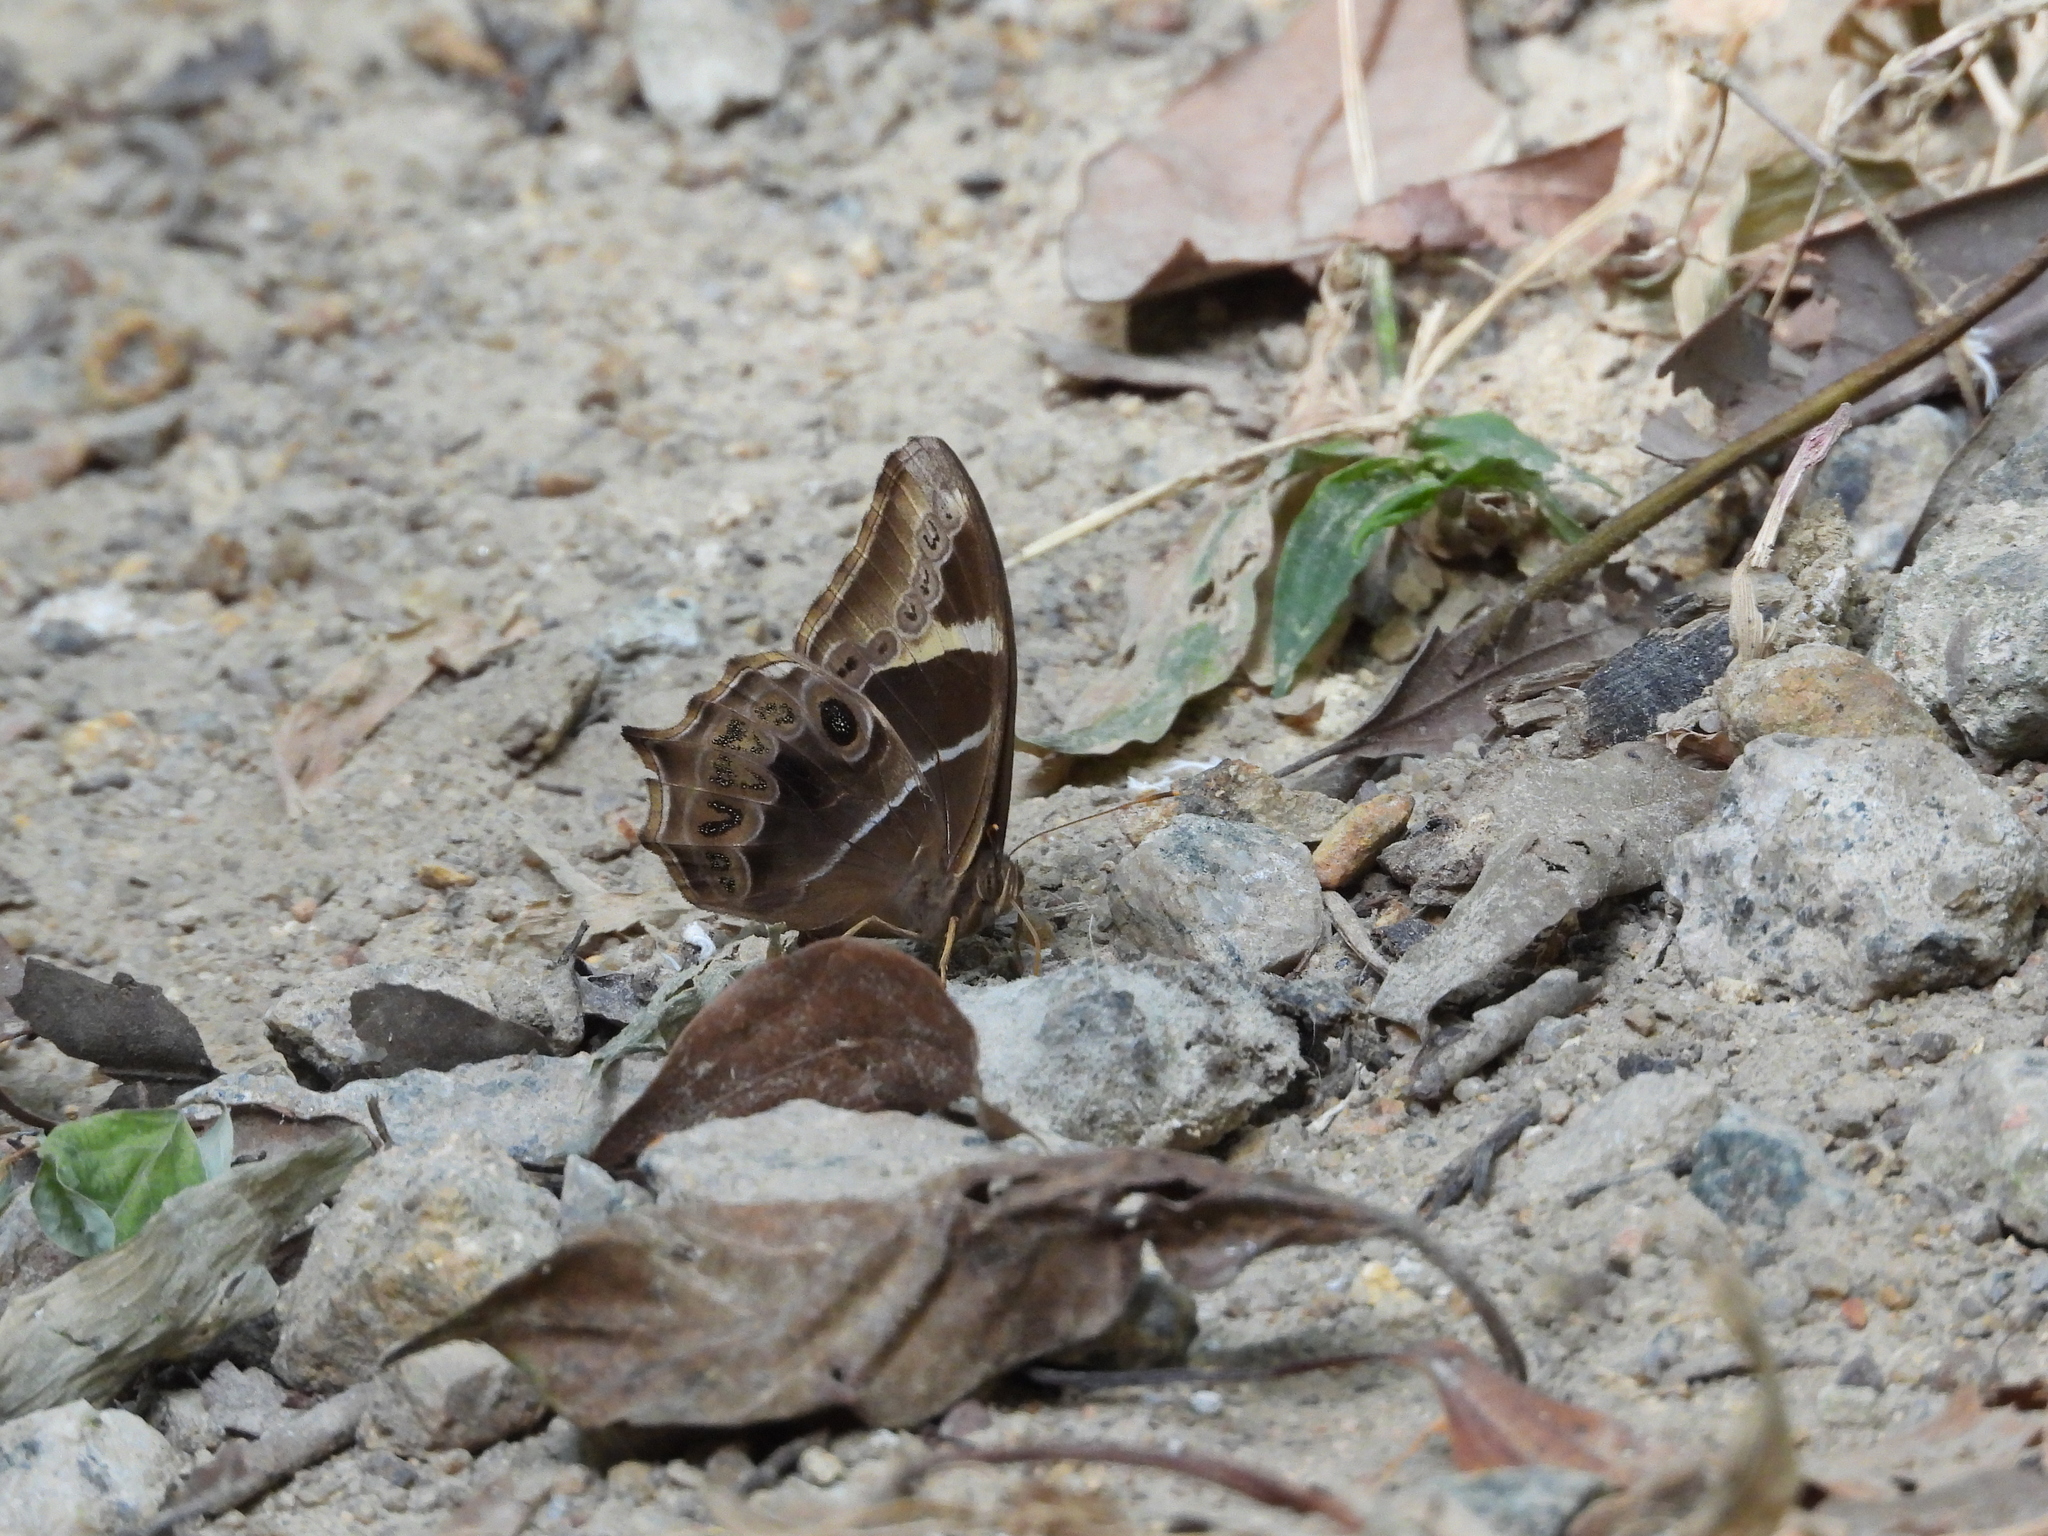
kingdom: Animalia
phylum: Arthropoda
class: Insecta
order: Lepidoptera
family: Nymphalidae
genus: Lethe
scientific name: Lethe europa
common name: Bamboo treebrown
